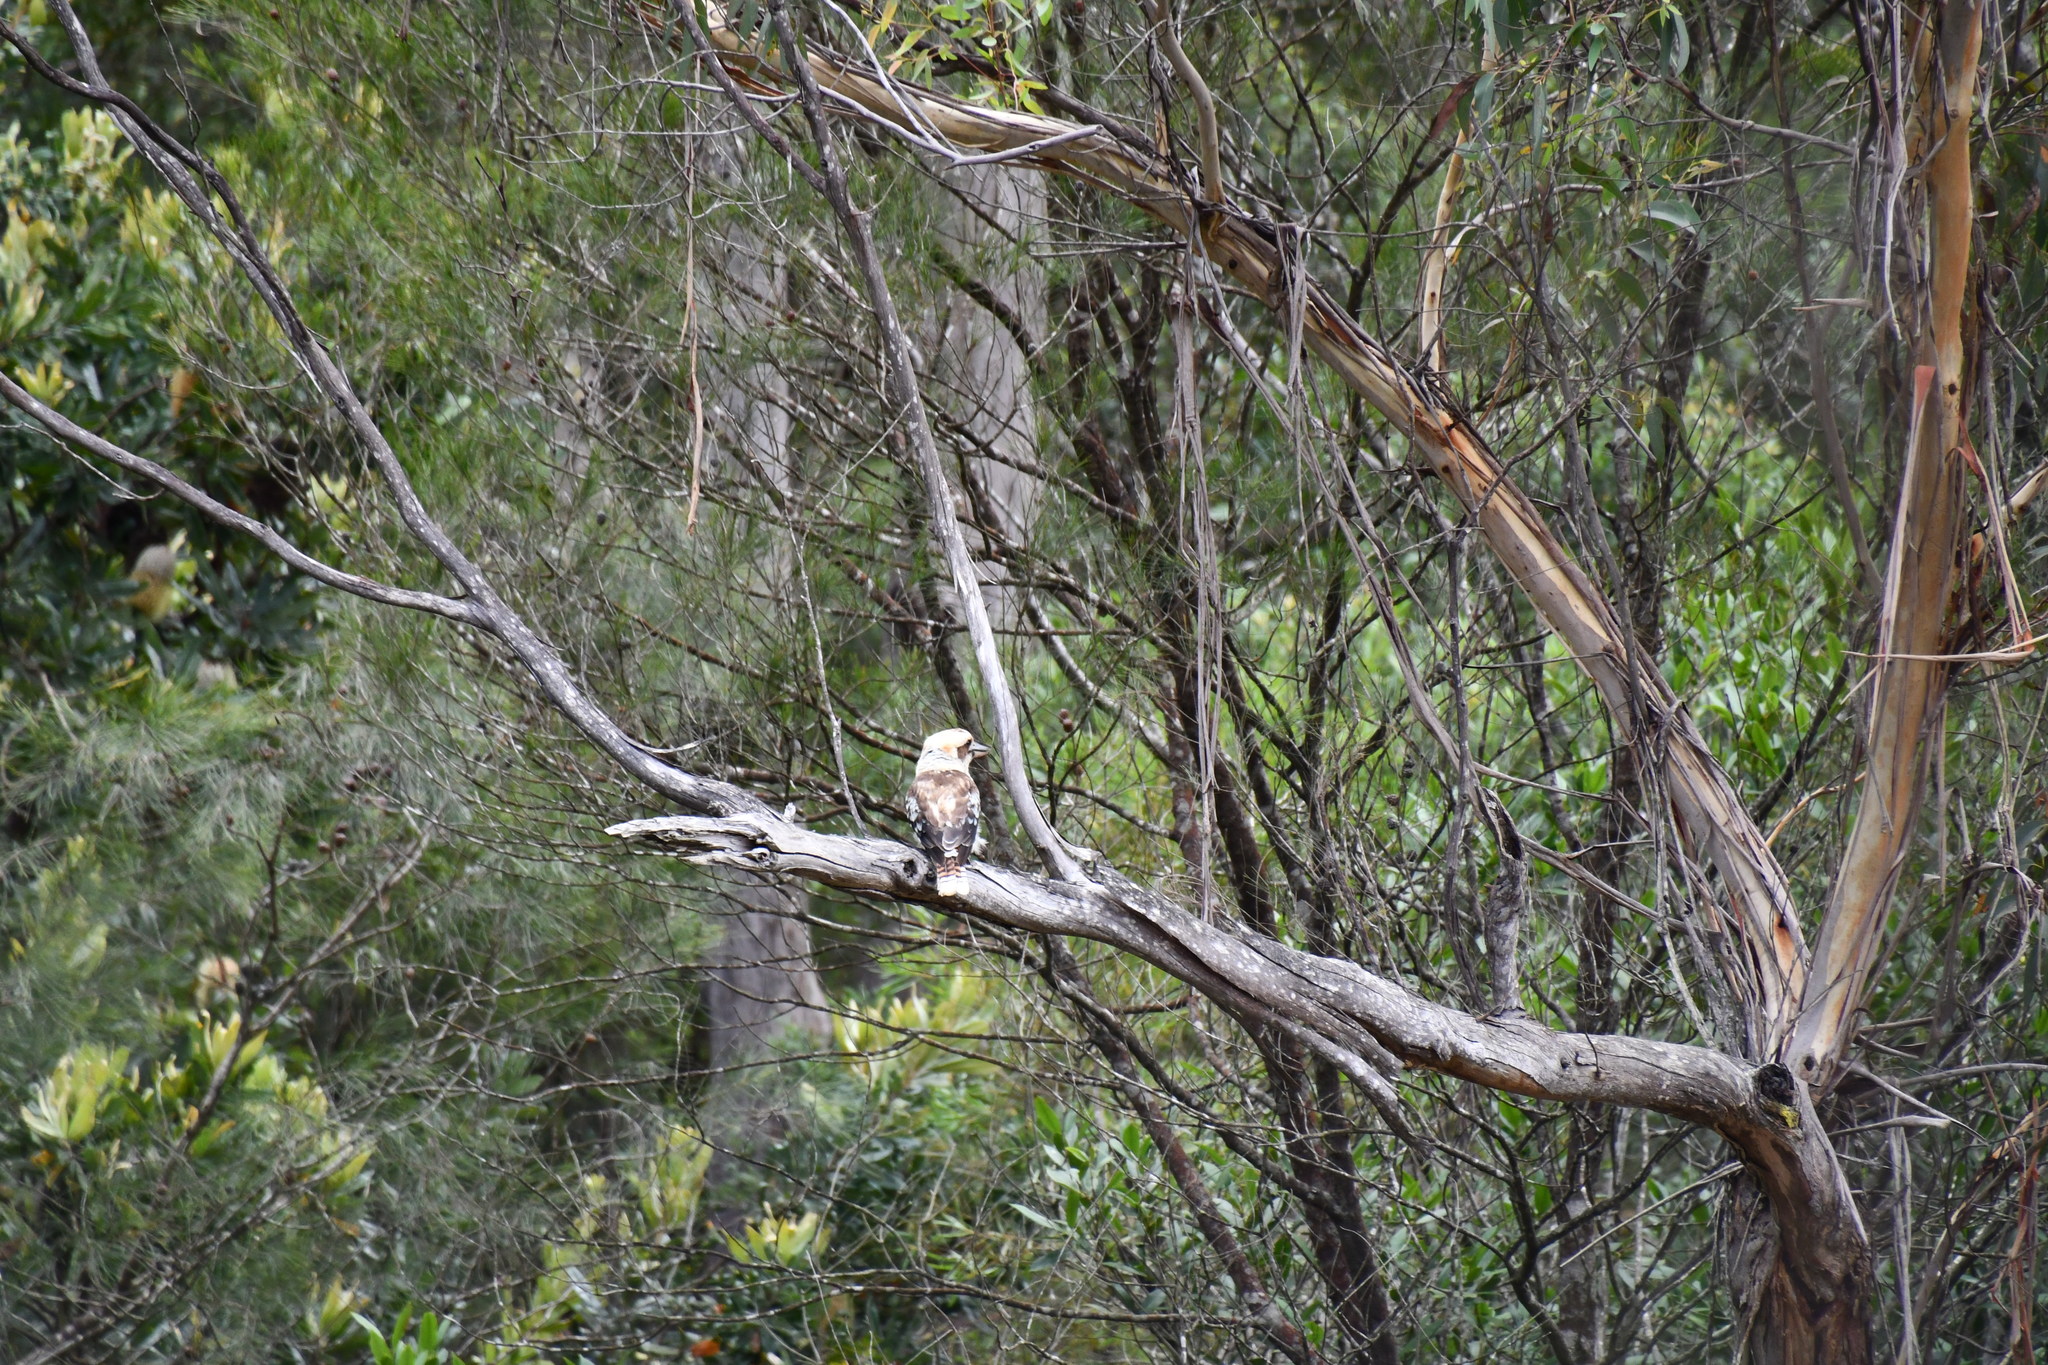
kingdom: Animalia
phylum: Chordata
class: Aves
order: Coraciiformes
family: Alcedinidae
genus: Dacelo
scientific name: Dacelo novaeguineae
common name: Laughing kookaburra
